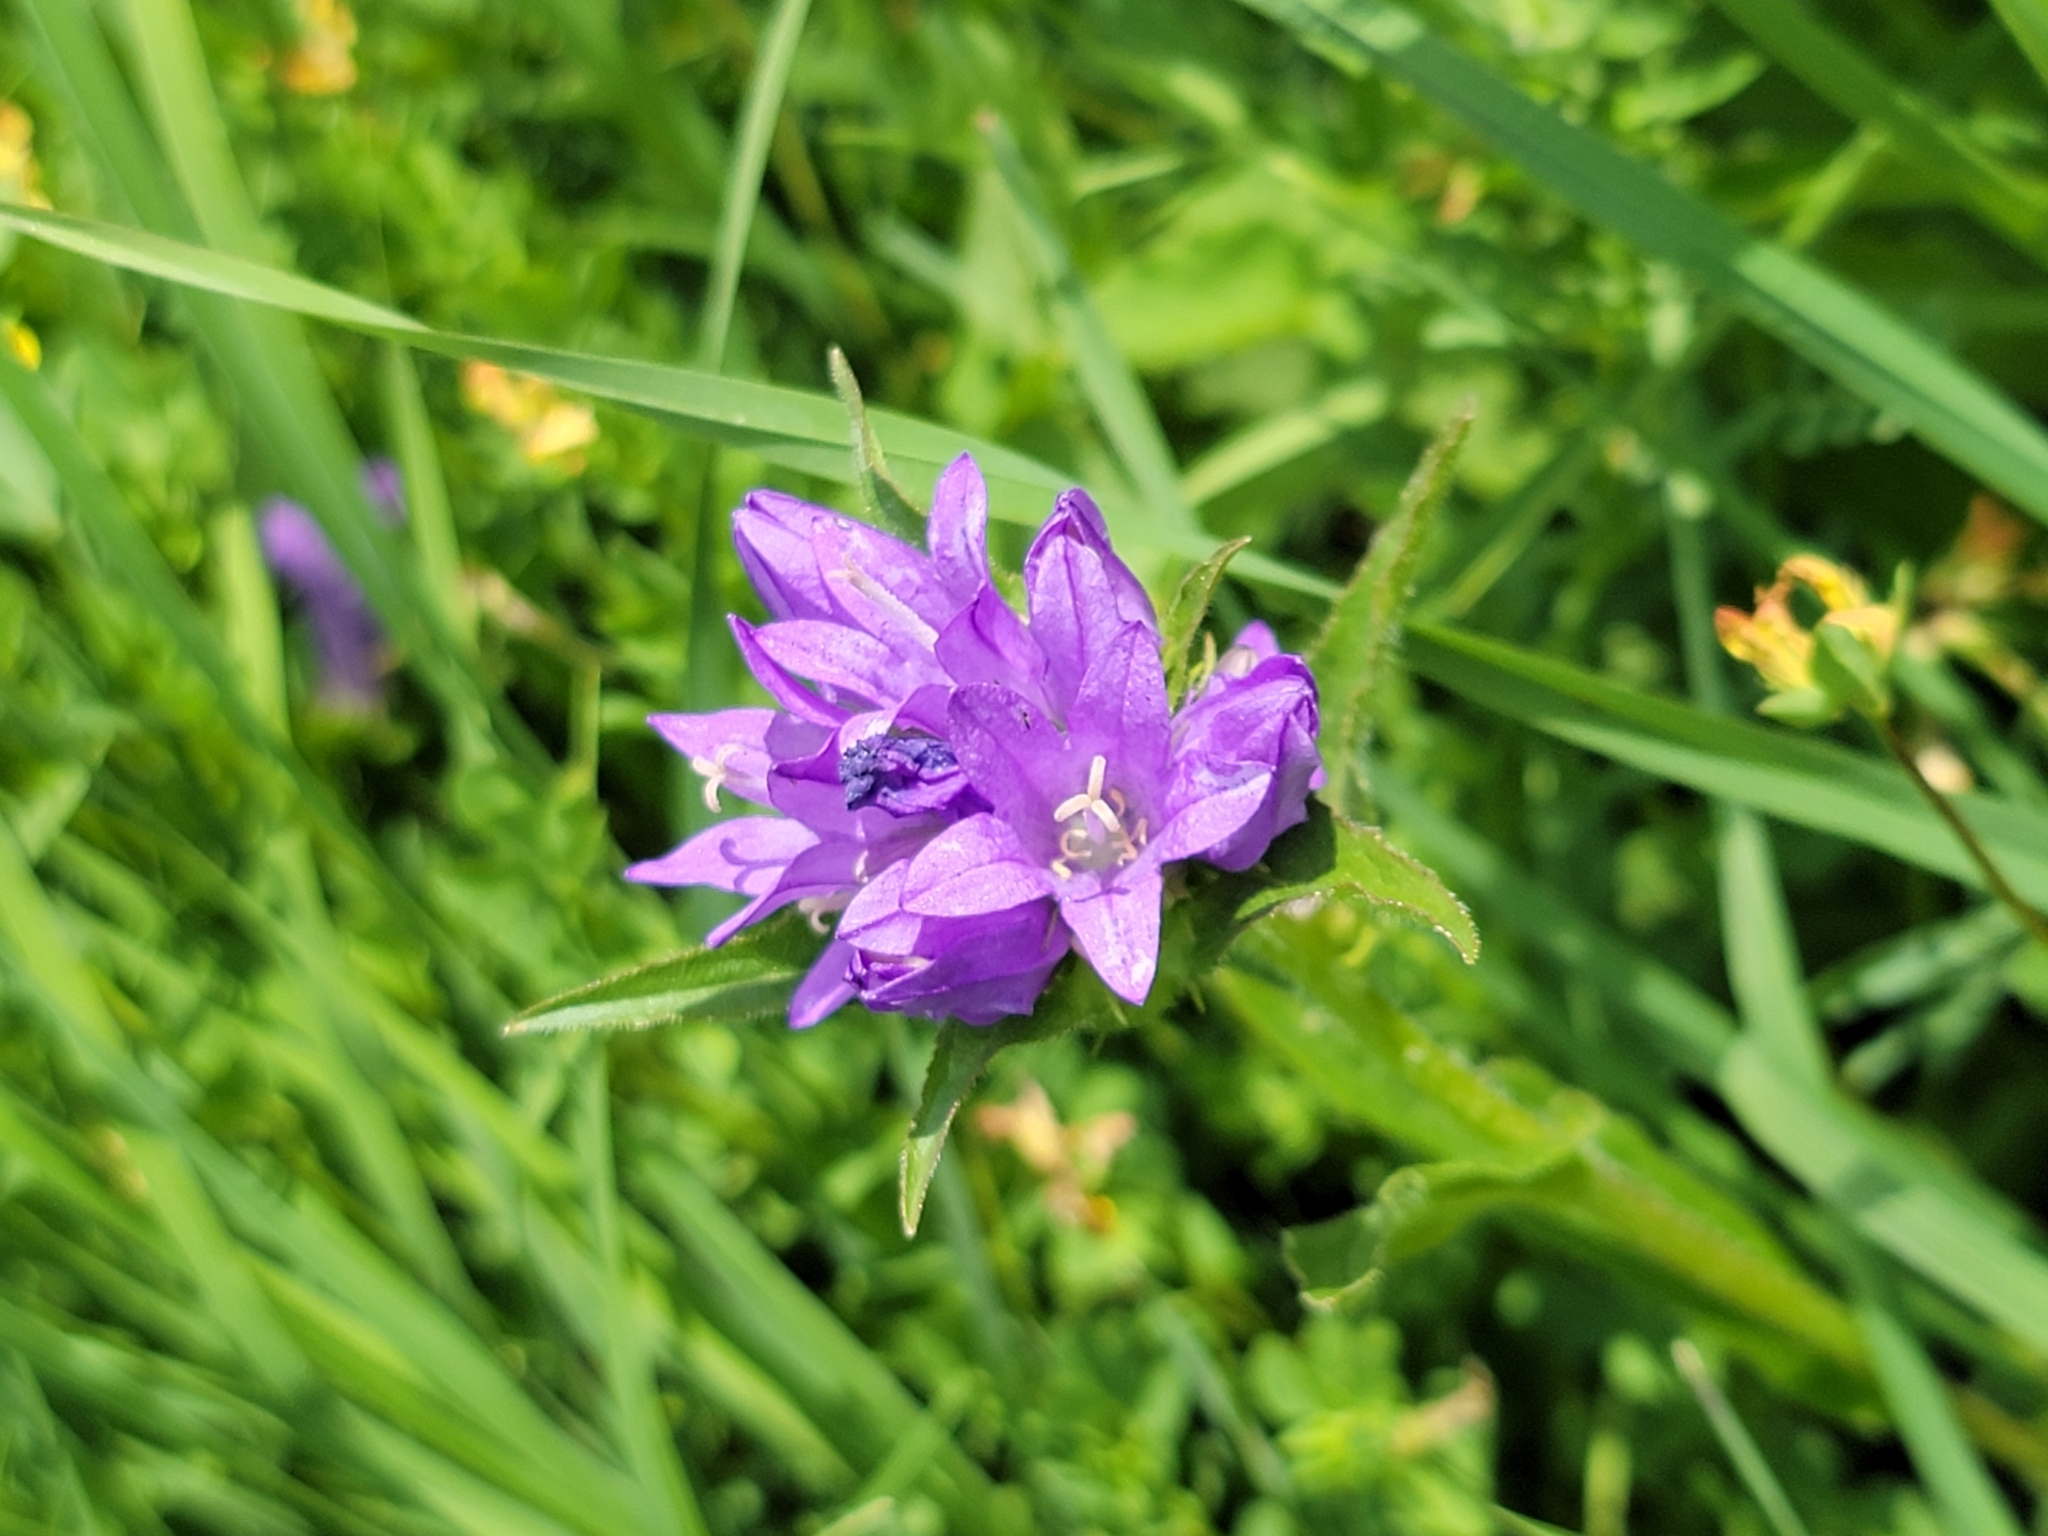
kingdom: Plantae
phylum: Tracheophyta
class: Magnoliopsida
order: Asterales
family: Campanulaceae
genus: Campanula
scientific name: Campanula glomerata
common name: Clustered bellflower
